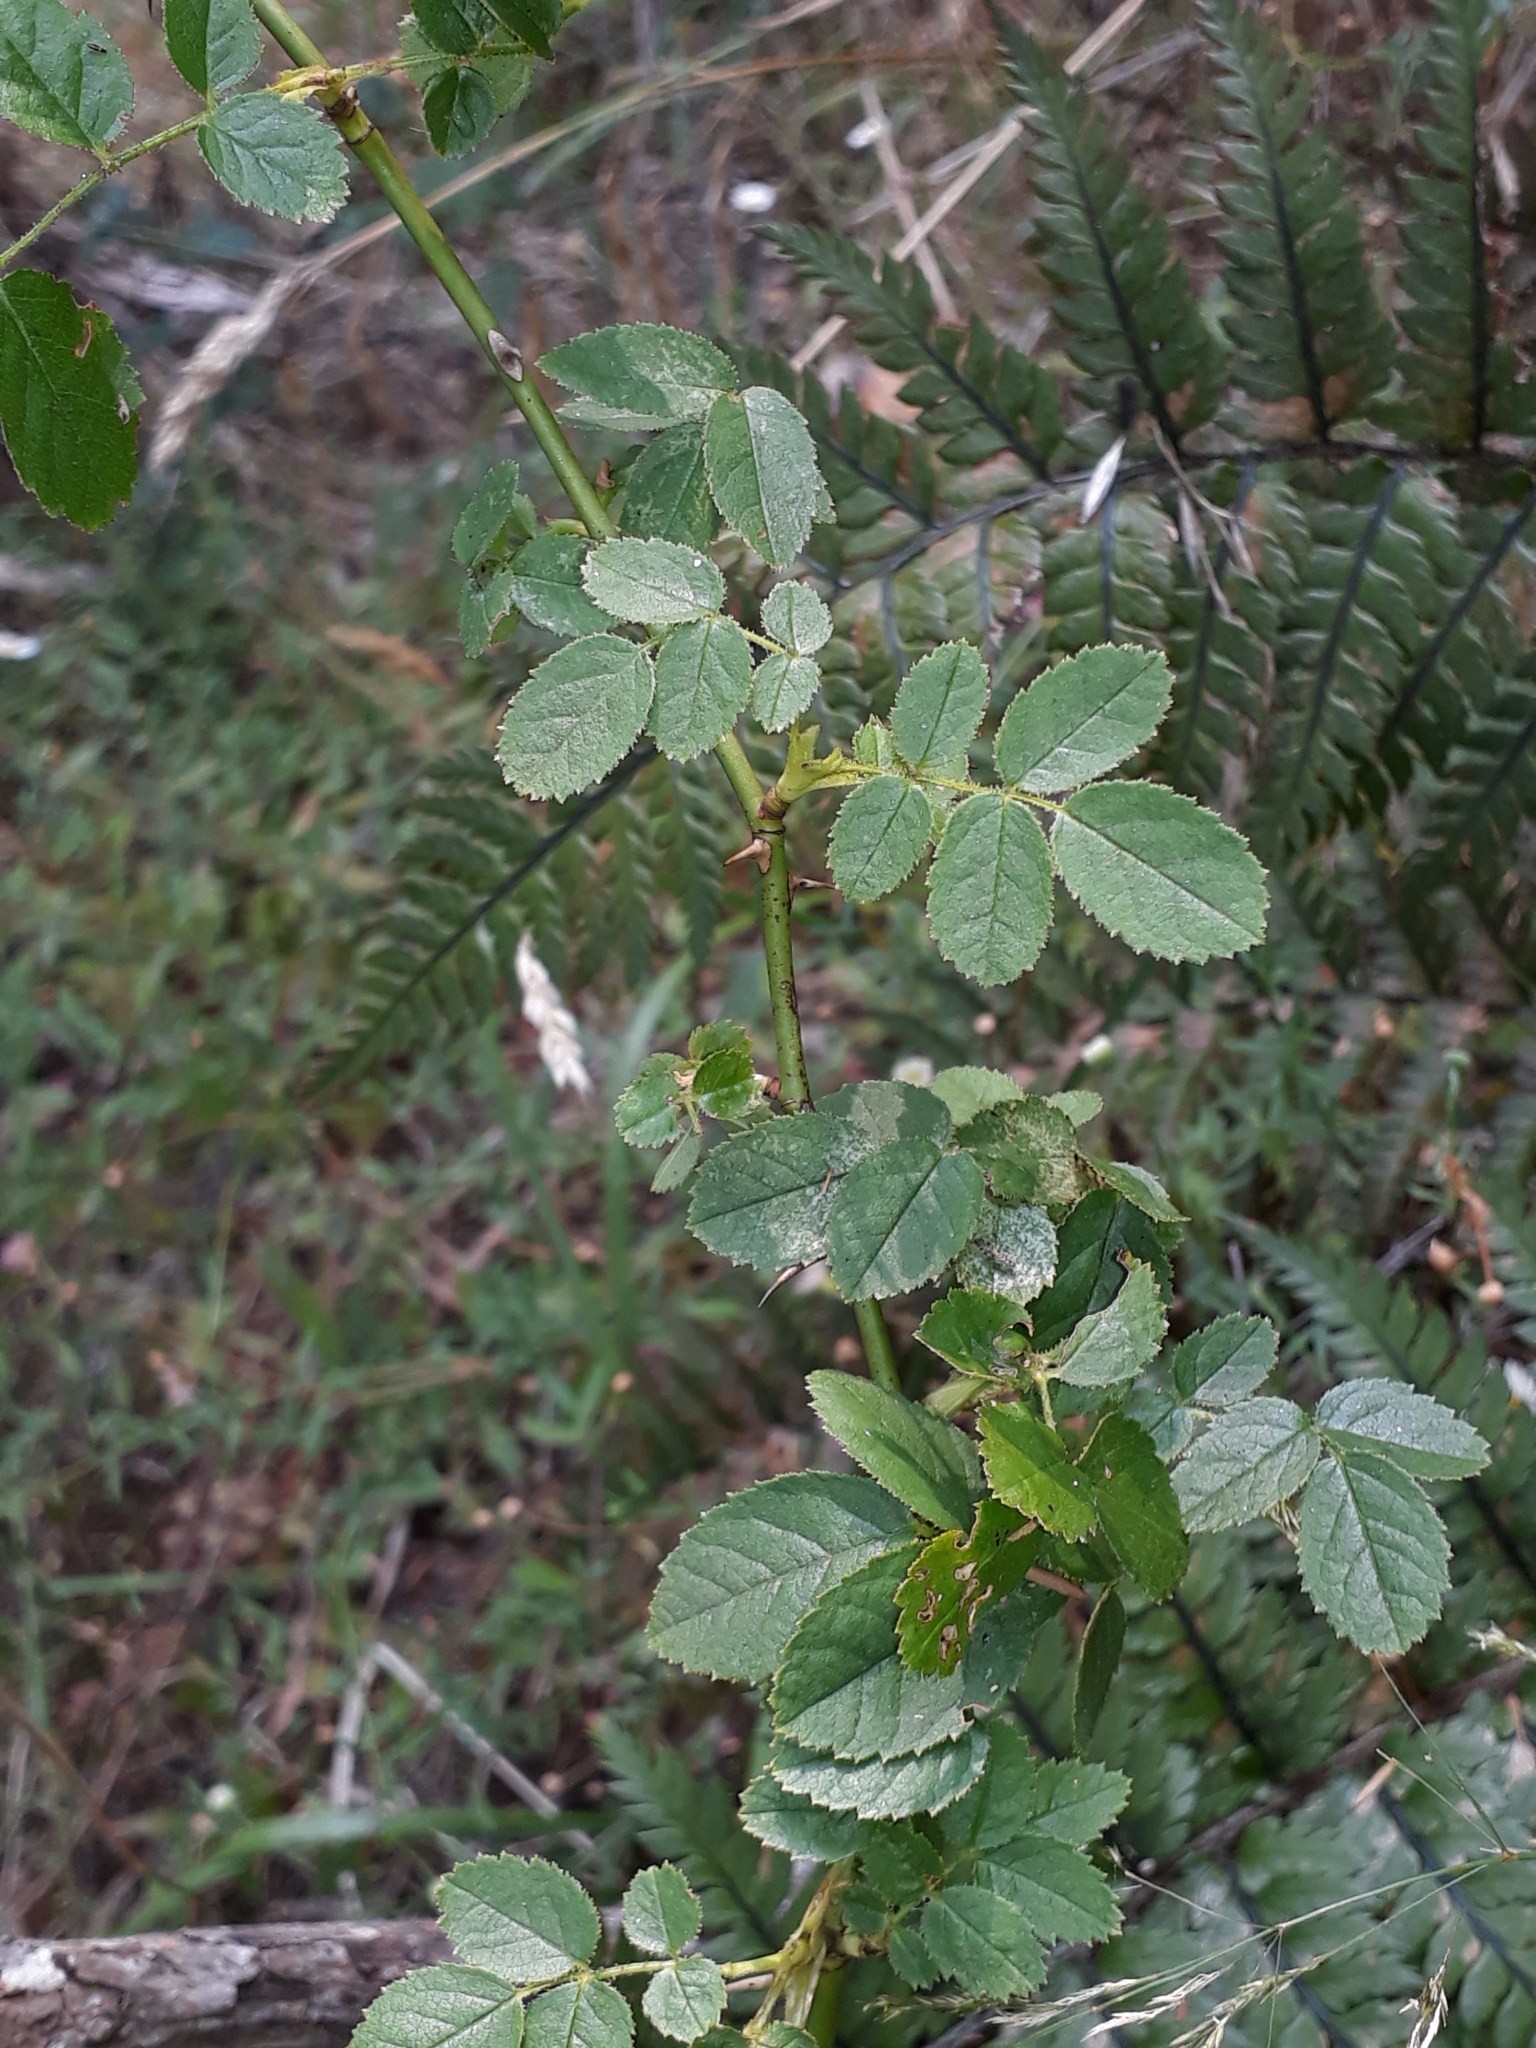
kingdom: Plantae
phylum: Tracheophyta
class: Magnoliopsida
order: Rosales
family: Rosaceae
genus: Rosa
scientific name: Rosa rubiginosa
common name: Sweet-briar
